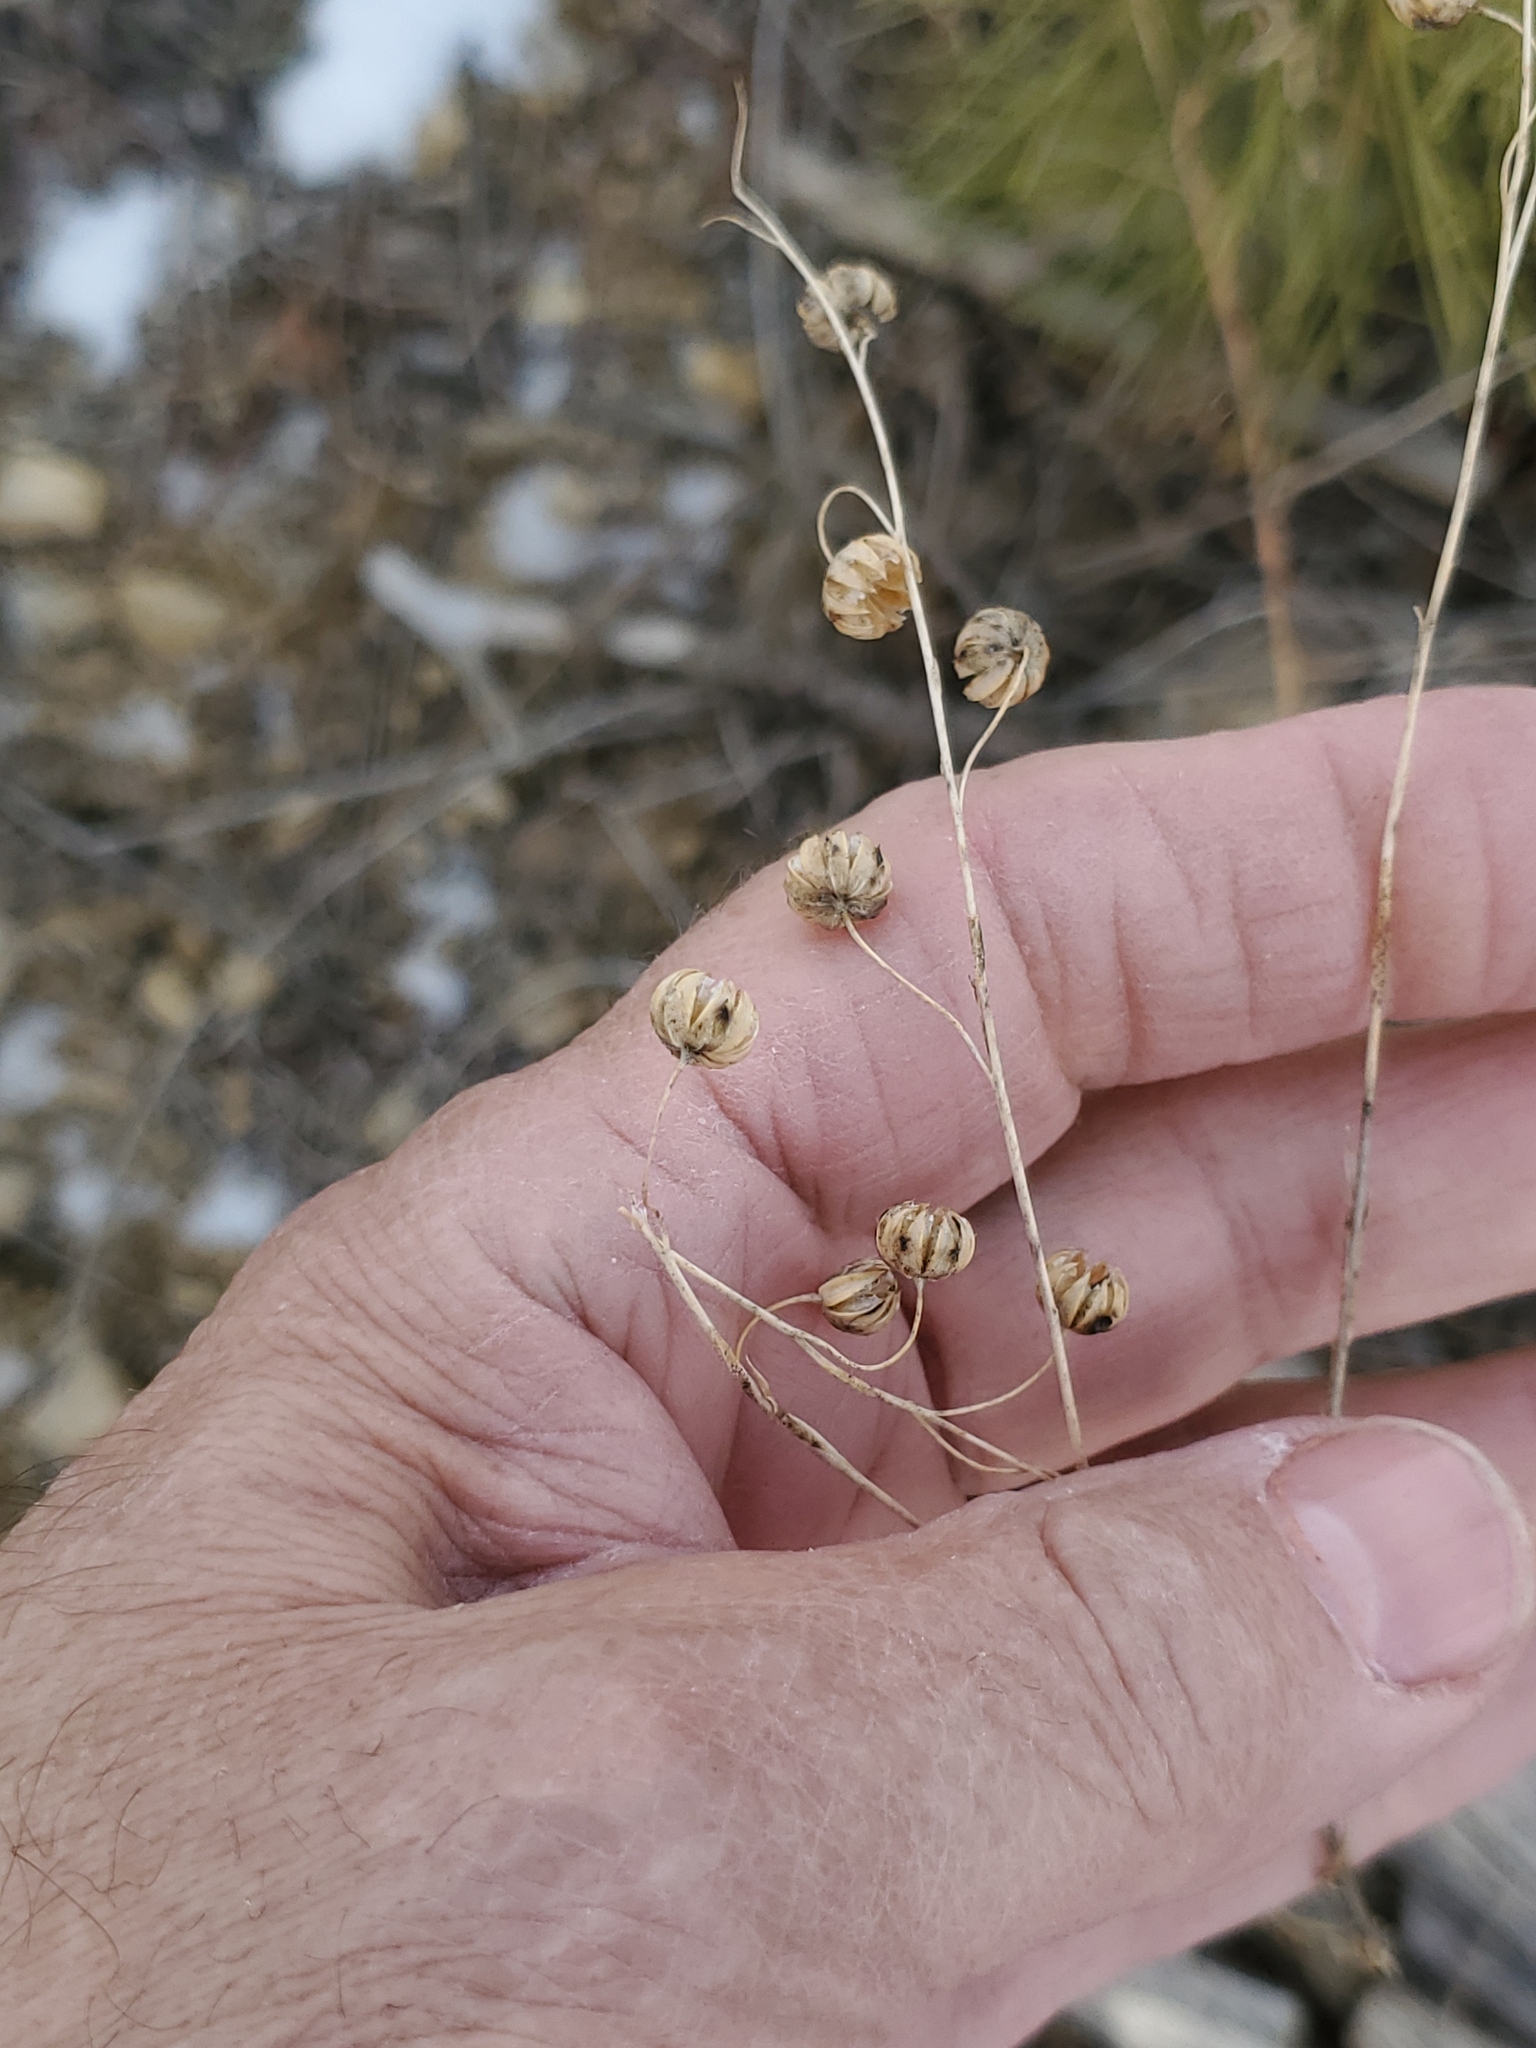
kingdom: Plantae
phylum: Tracheophyta
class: Magnoliopsida
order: Malpighiales
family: Linaceae
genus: Linum
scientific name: Linum lewisii
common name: Prairie flax
